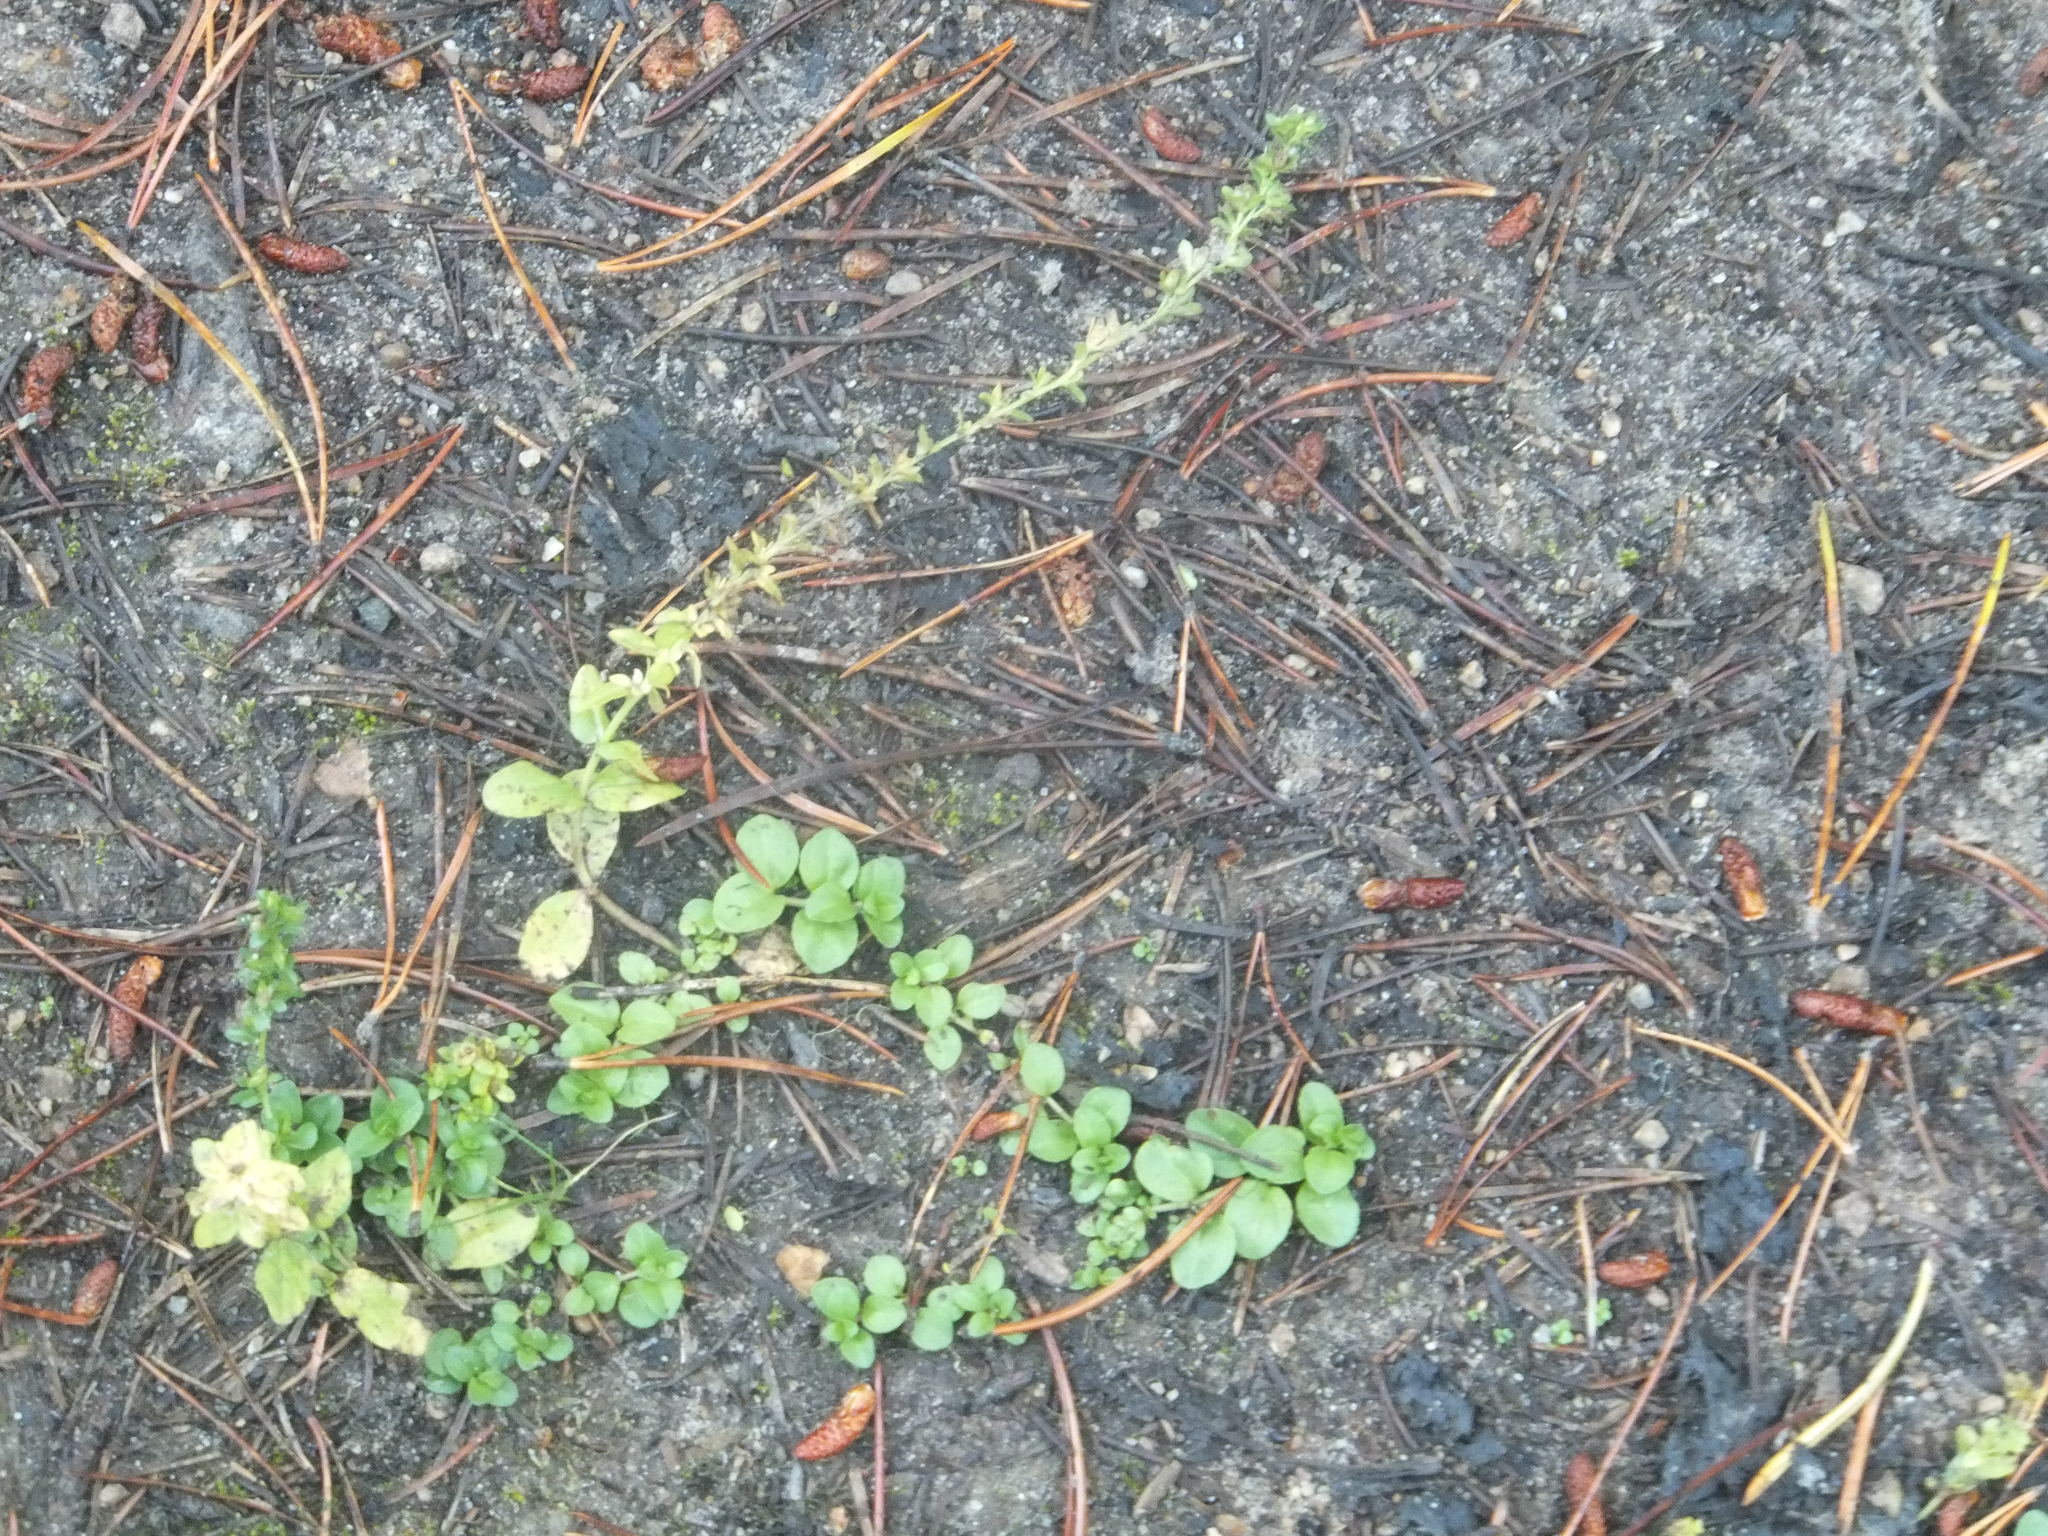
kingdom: Plantae
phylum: Tracheophyta
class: Magnoliopsida
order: Lamiales
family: Plantaginaceae
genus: Veronica
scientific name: Veronica serpyllifolia
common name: Thyme-leaved speedwell
